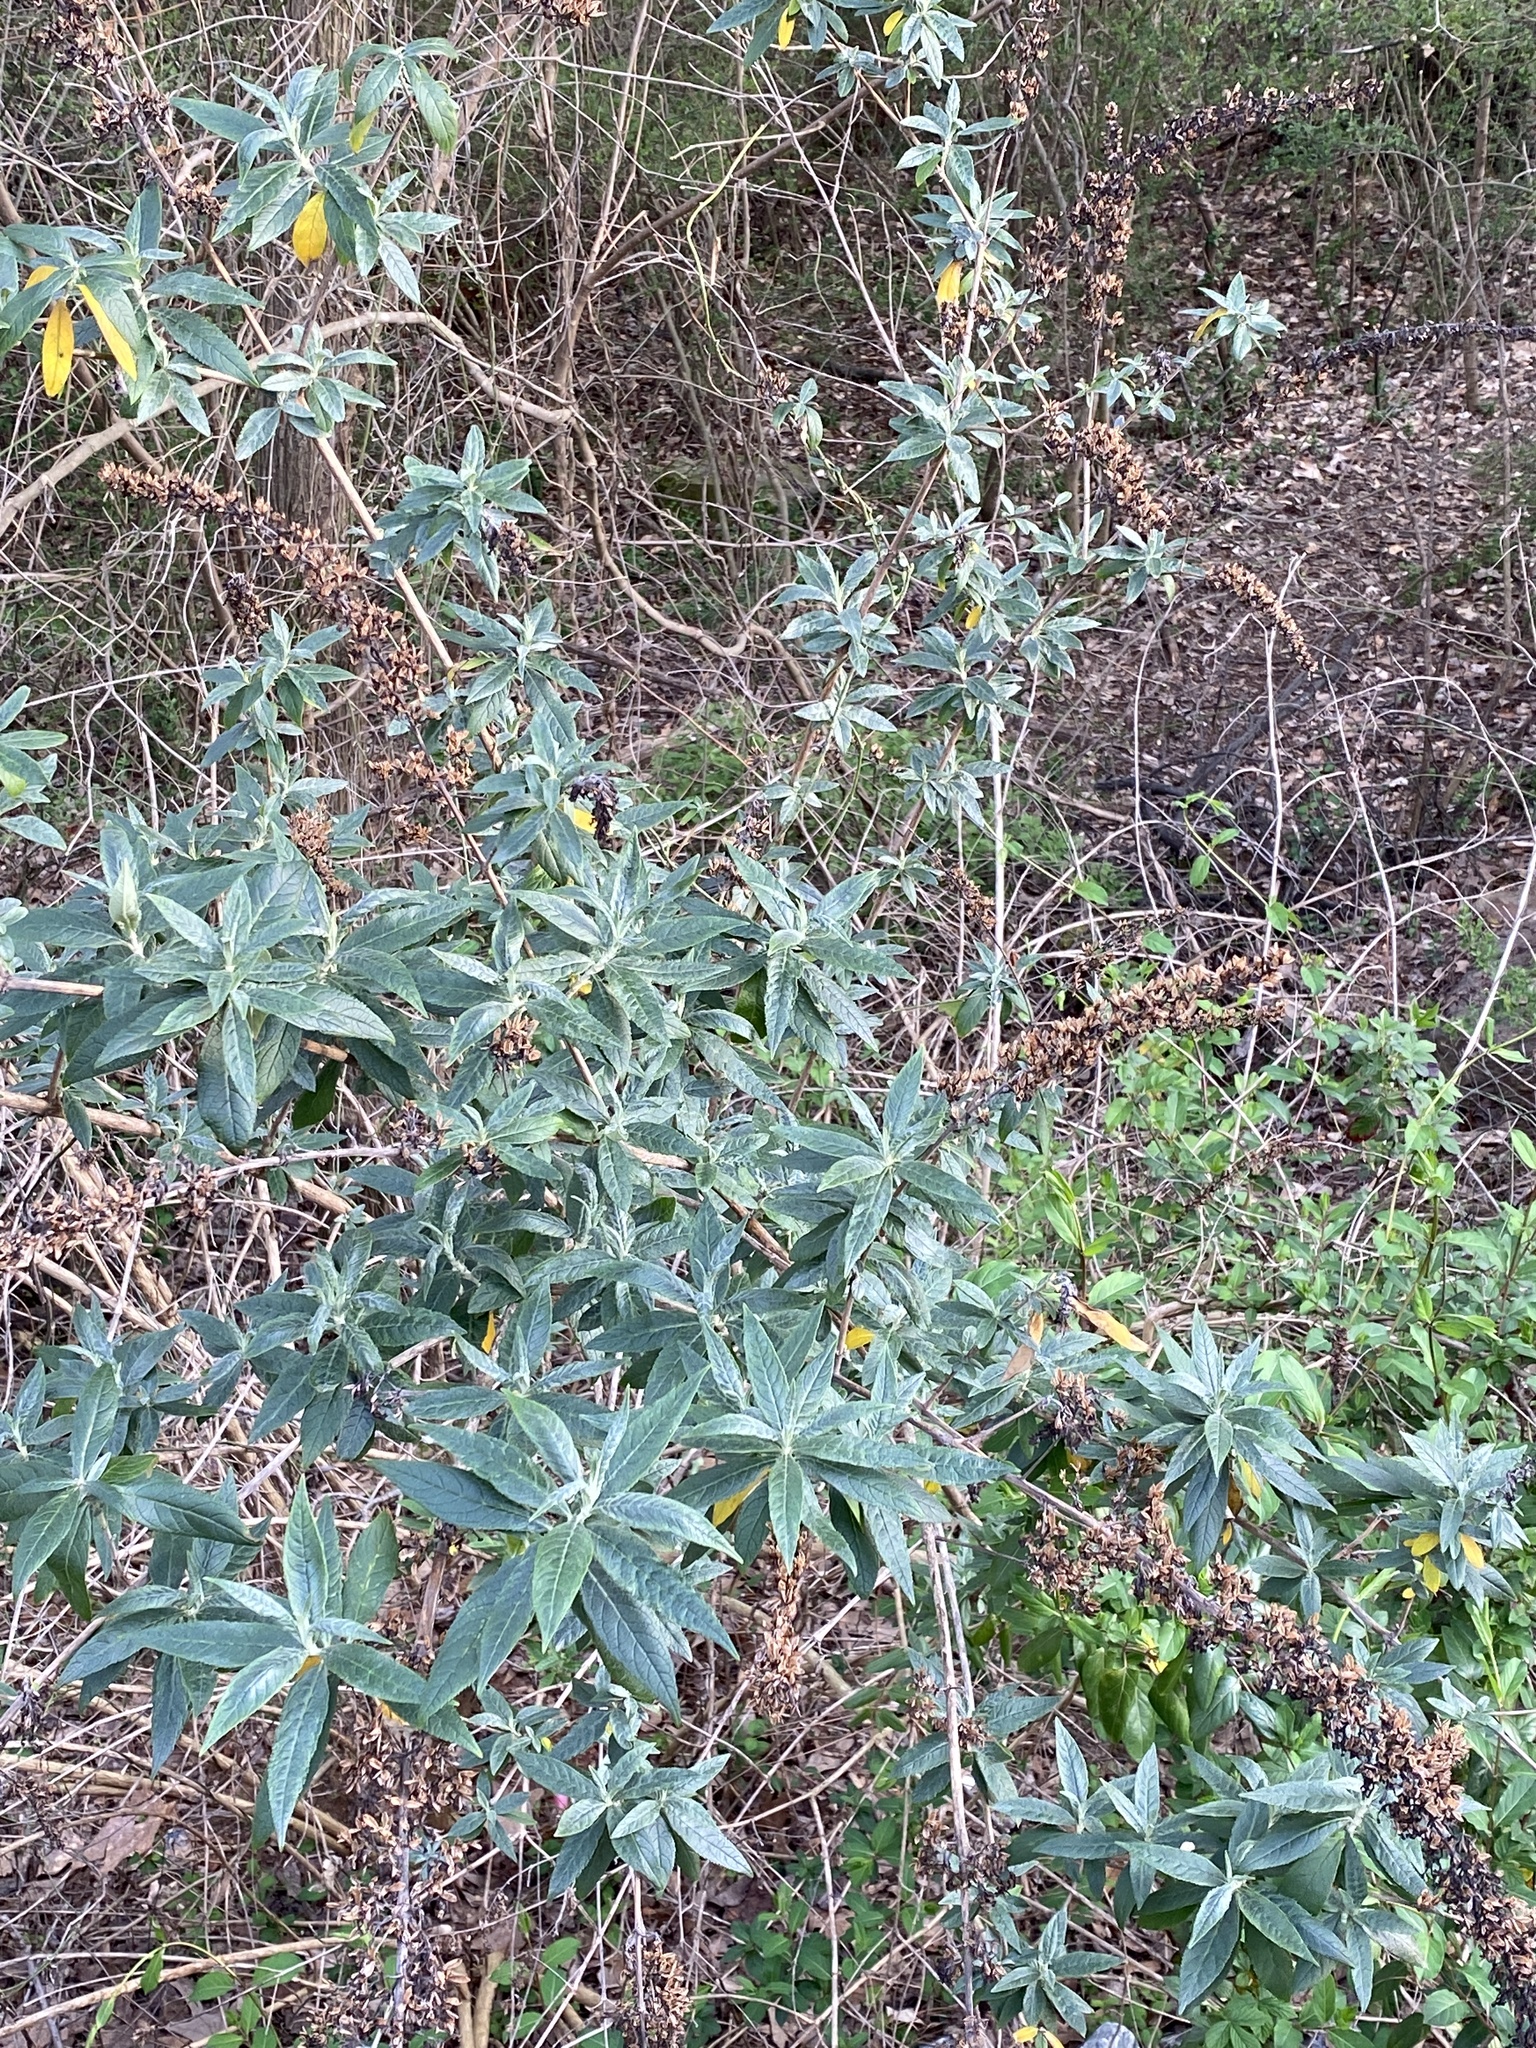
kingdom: Plantae
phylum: Tracheophyta
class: Magnoliopsida
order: Lamiales
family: Scrophulariaceae
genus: Buddleja
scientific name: Buddleja davidii
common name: Butterfly-bush
